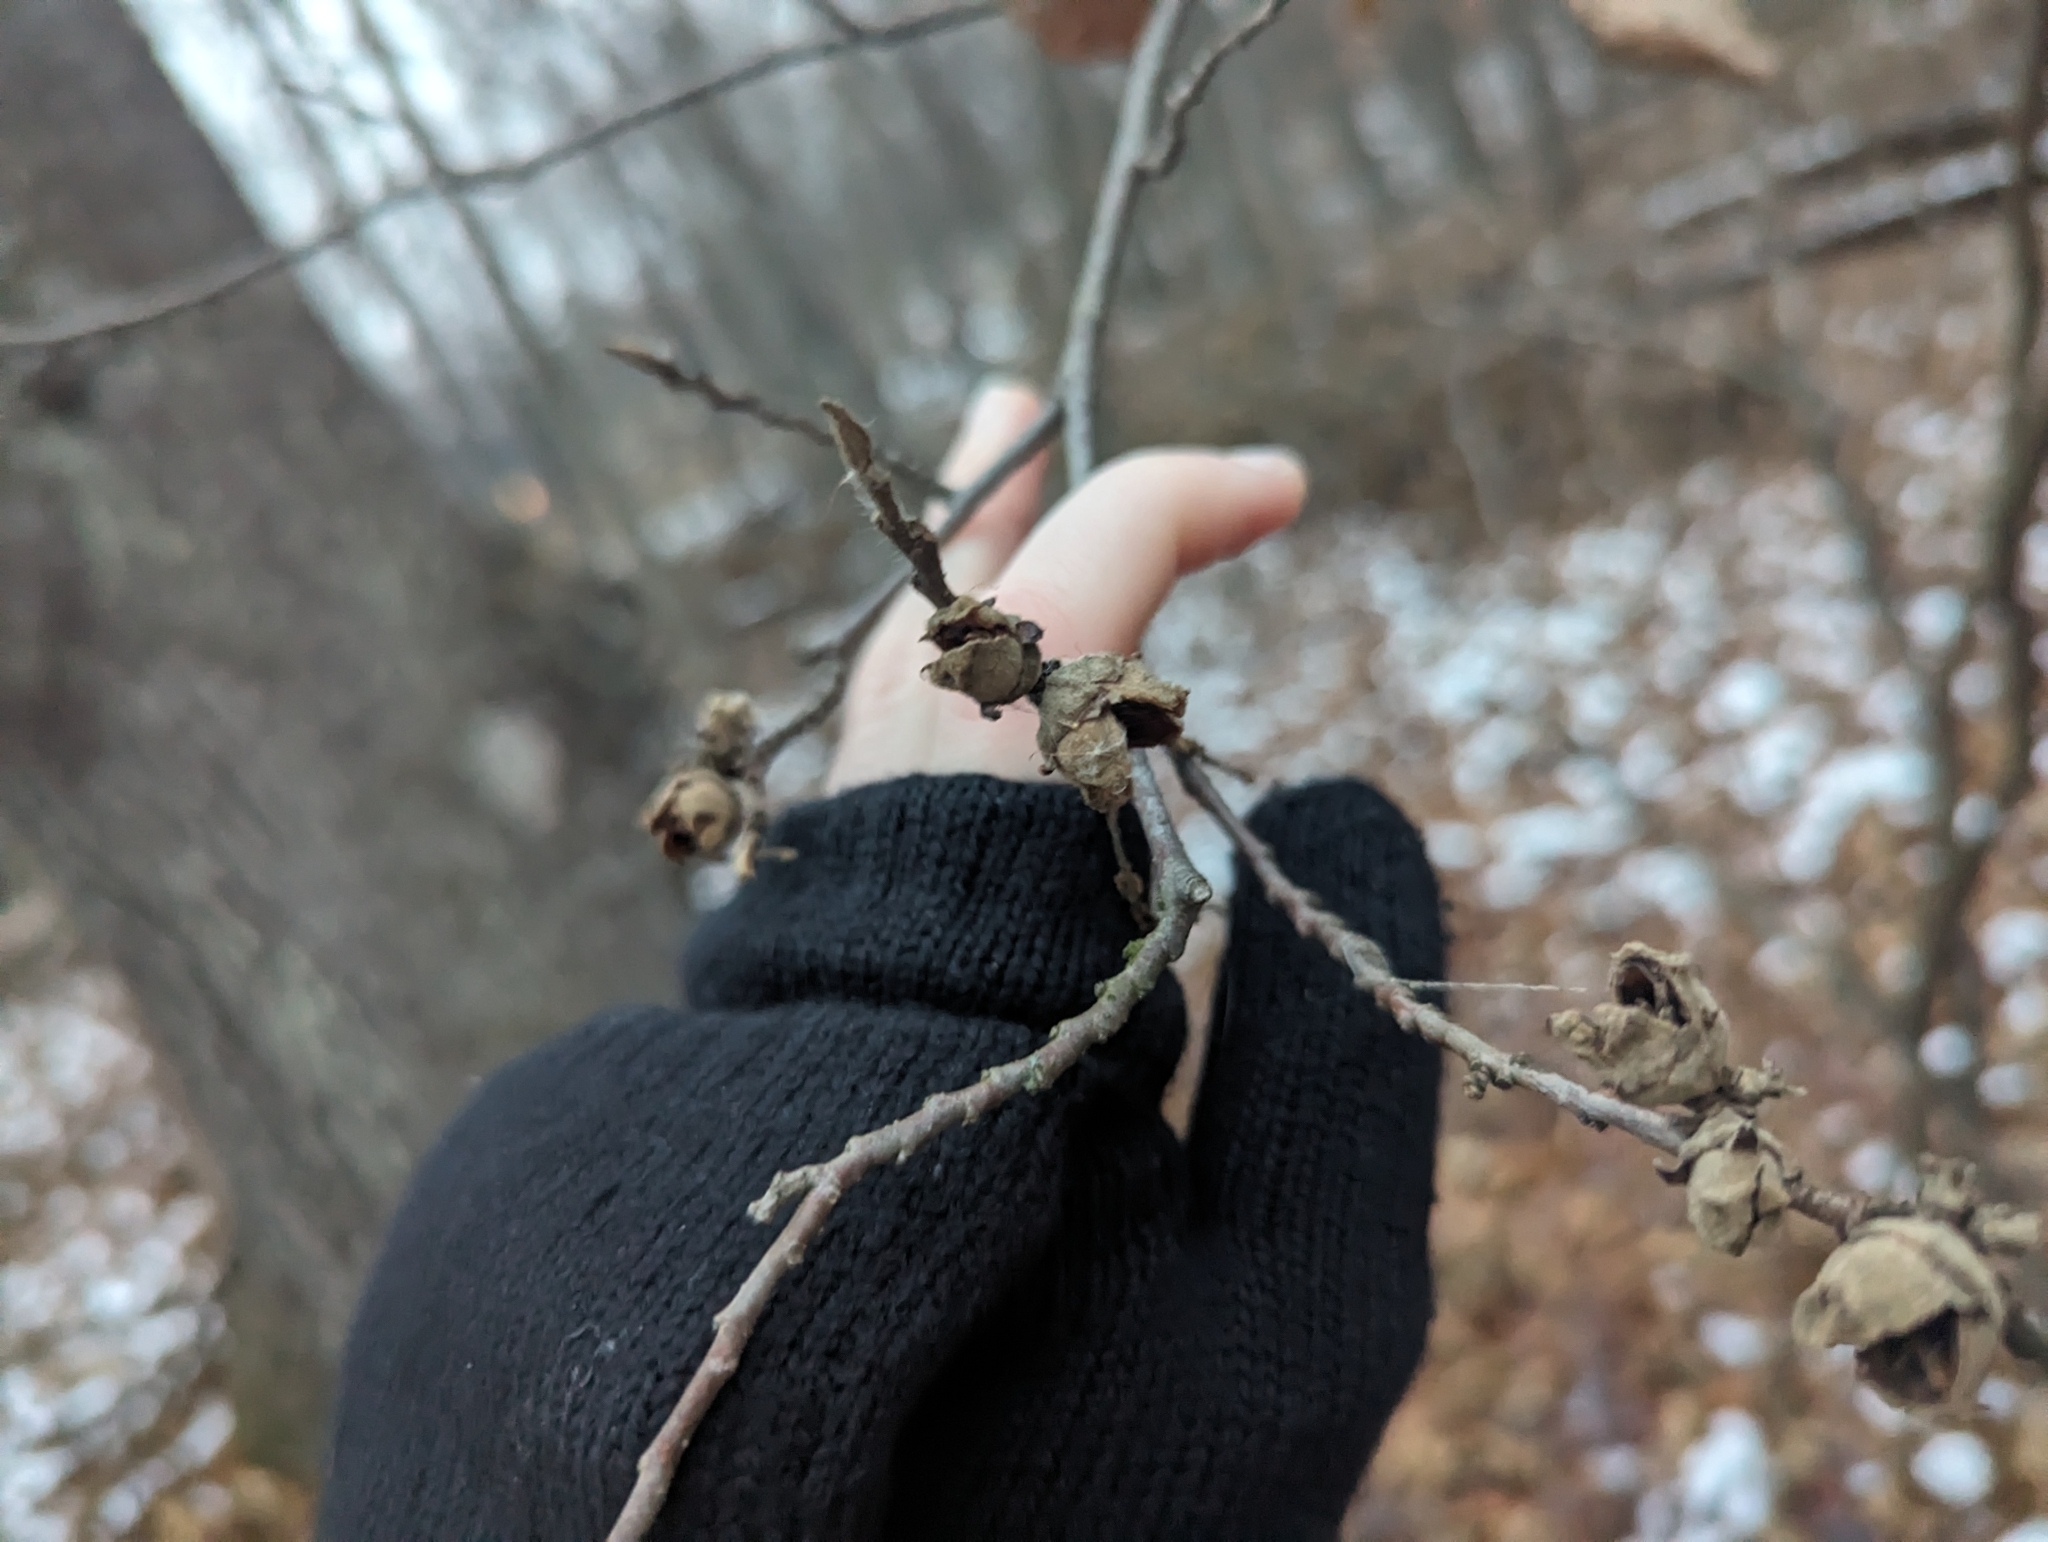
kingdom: Plantae
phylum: Tracheophyta
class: Magnoliopsida
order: Saxifragales
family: Hamamelidaceae
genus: Hamamelis
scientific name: Hamamelis virginiana
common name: Witch-hazel
